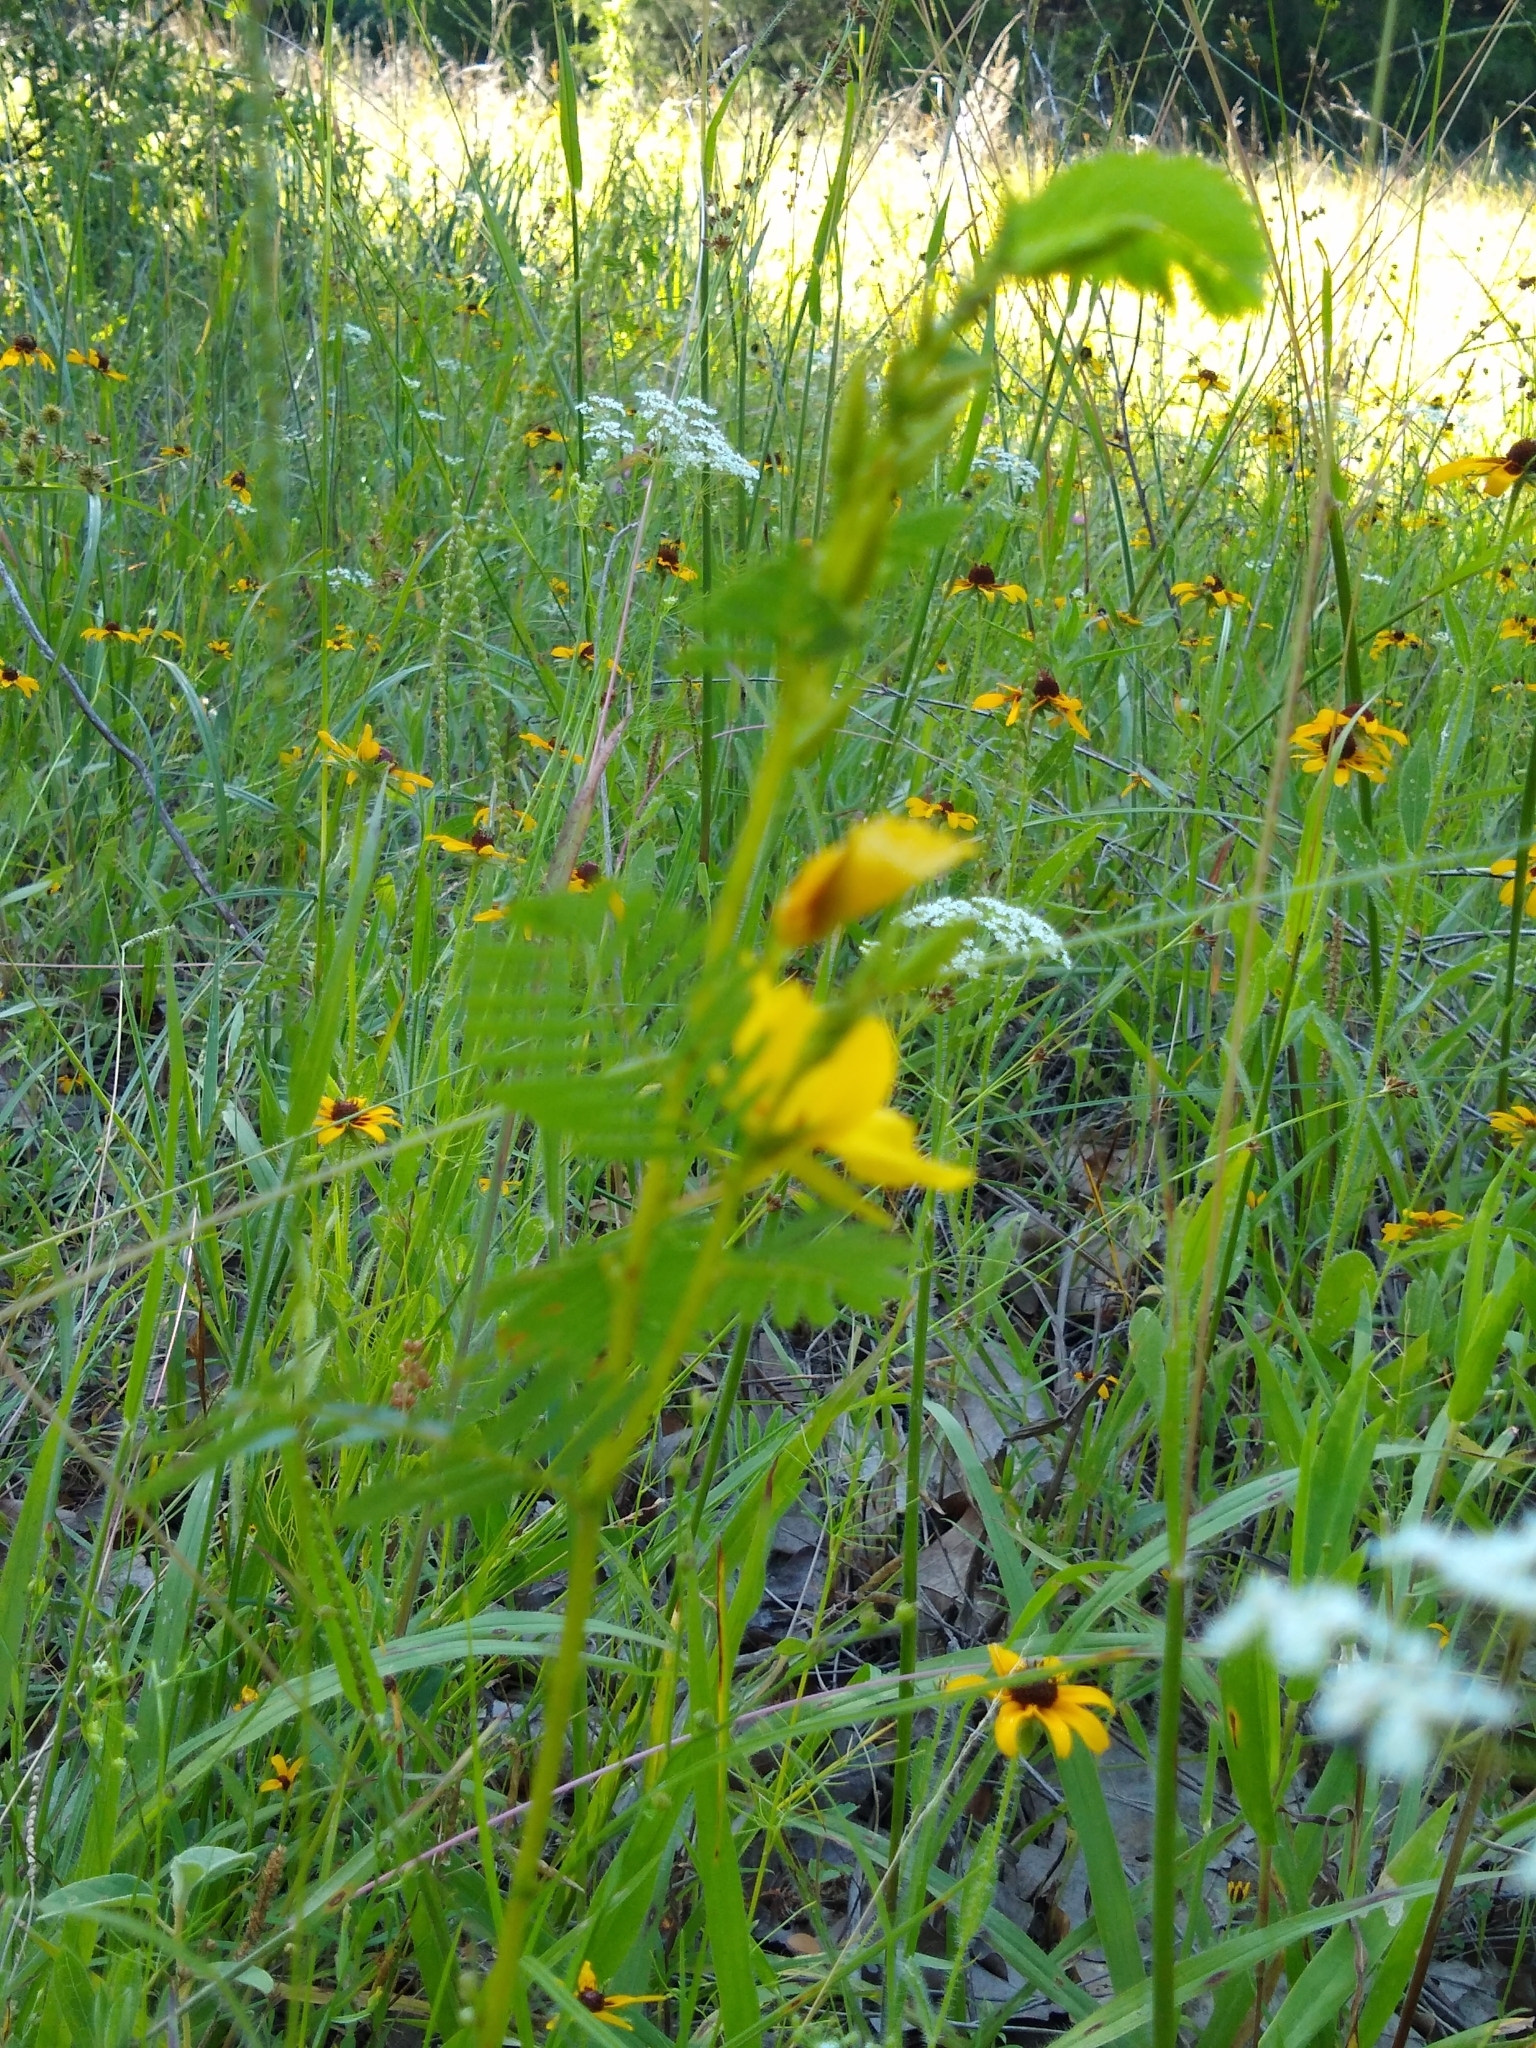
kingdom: Plantae
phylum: Tracheophyta
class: Magnoliopsida
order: Fabales
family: Fabaceae
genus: Chamaecrista
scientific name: Chamaecrista fasciculata
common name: Golden cassia
